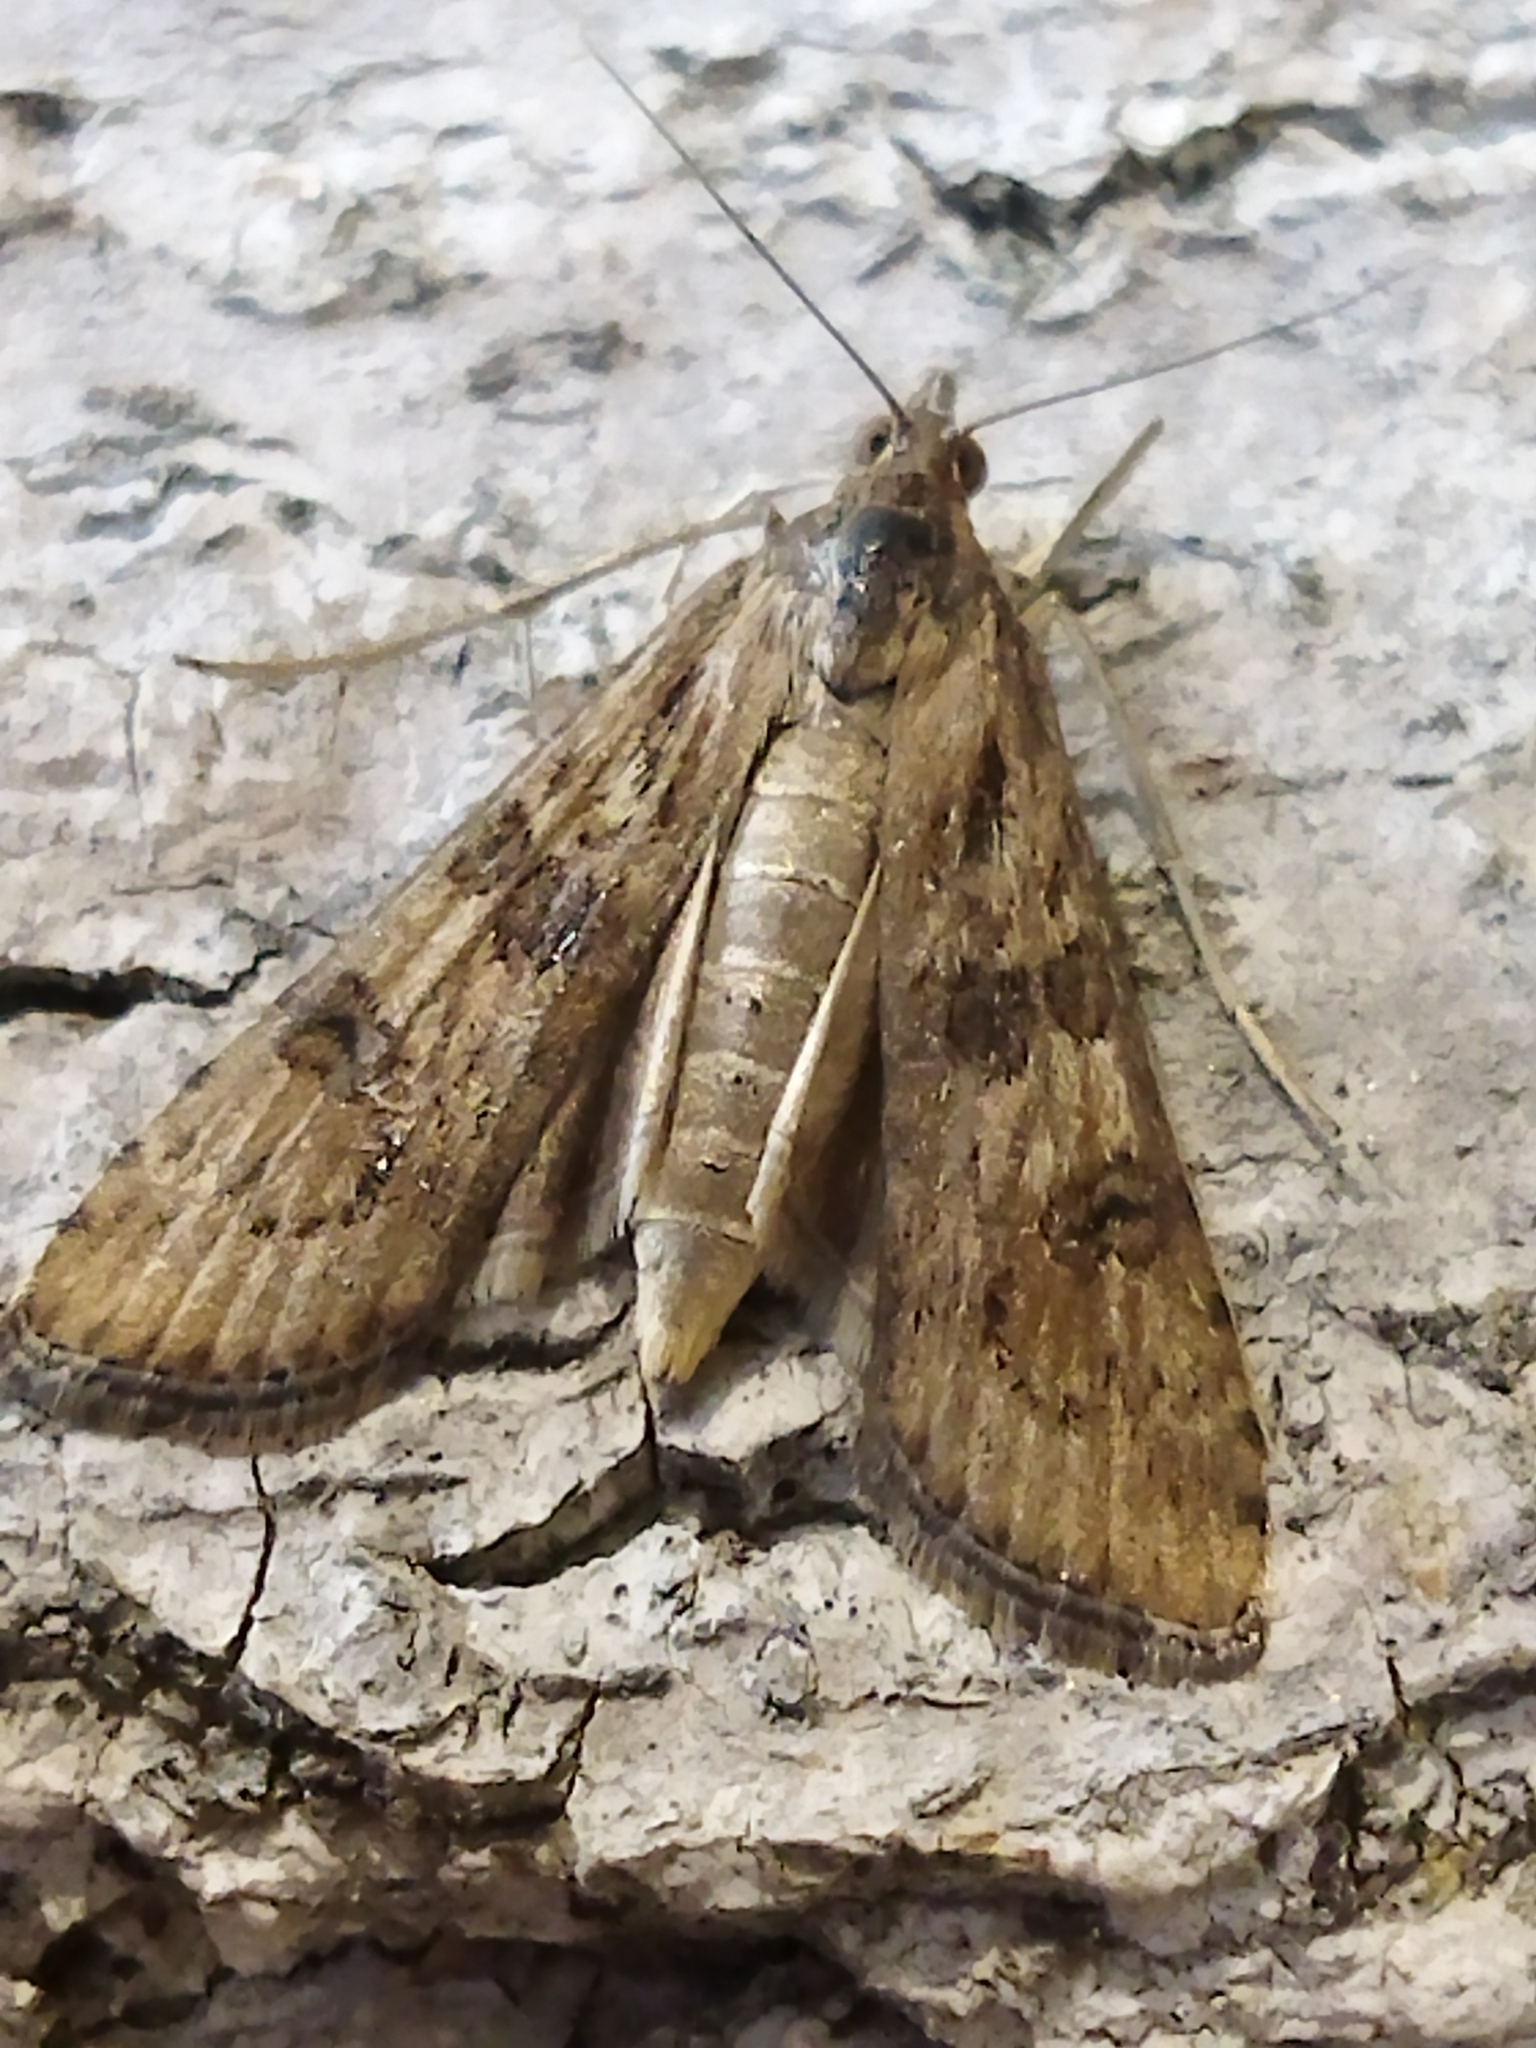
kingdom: Animalia
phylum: Arthropoda
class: Insecta
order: Lepidoptera
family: Crambidae
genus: Nomophila
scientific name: Nomophila noctuella
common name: Rush veneer
